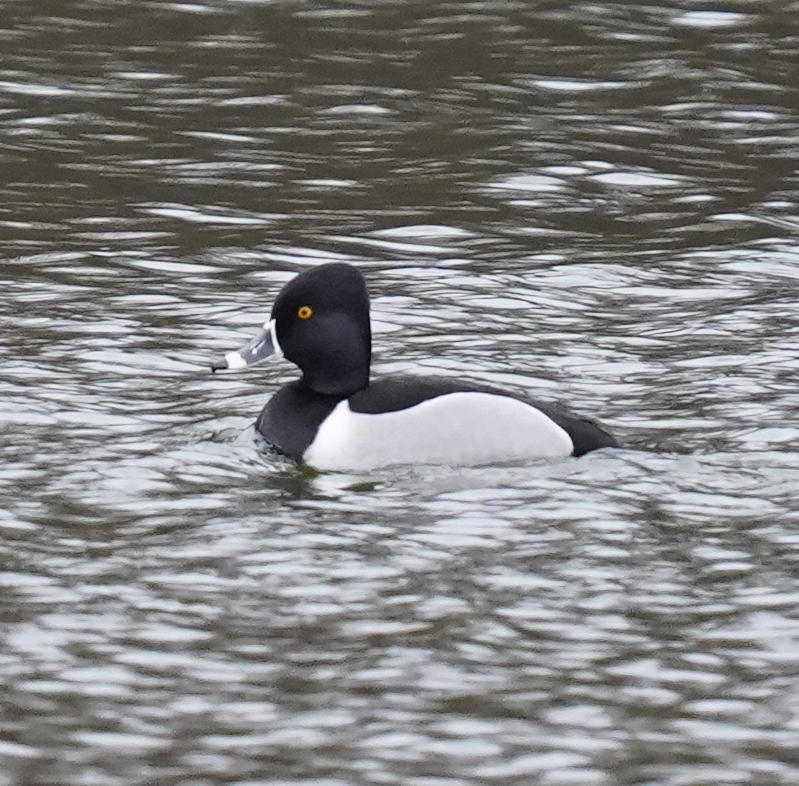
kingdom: Animalia
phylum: Chordata
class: Aves
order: Anseriformes
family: Anatidae
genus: Aythya
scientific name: Aythya collaris
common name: Ring-necked duck
